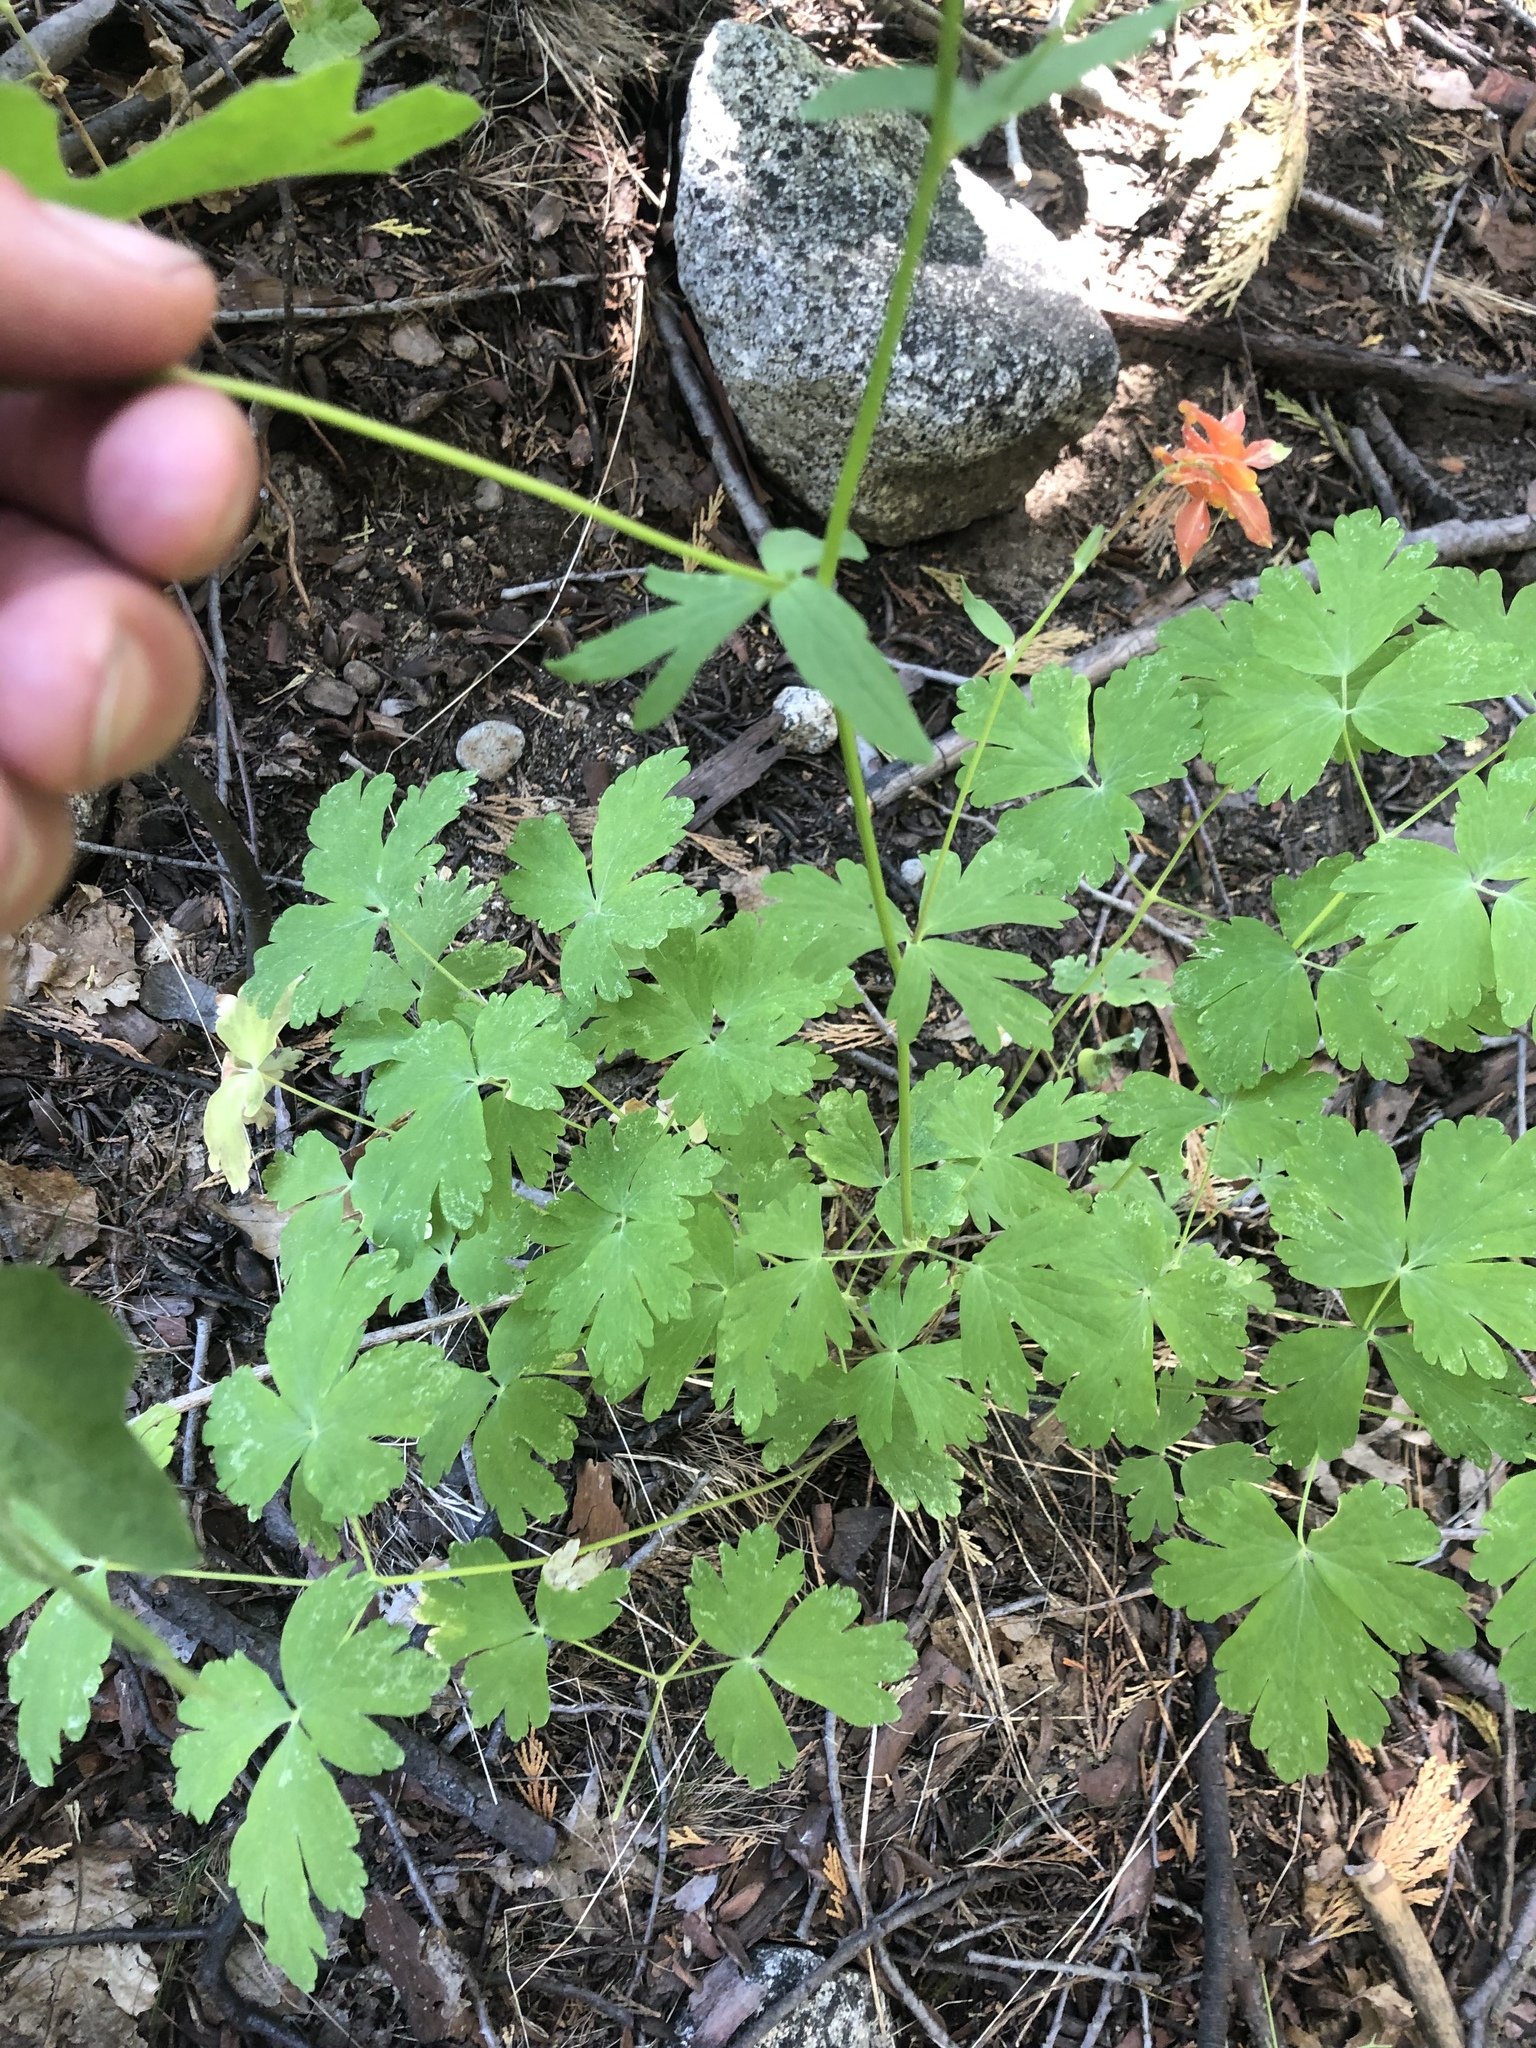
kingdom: Plantae
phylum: Tracheophyta
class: Magnoliopsida
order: Ranunculales
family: Ranunculaceae
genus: Aquilegia
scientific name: Aquilegia formosa
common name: Sitka columbine
